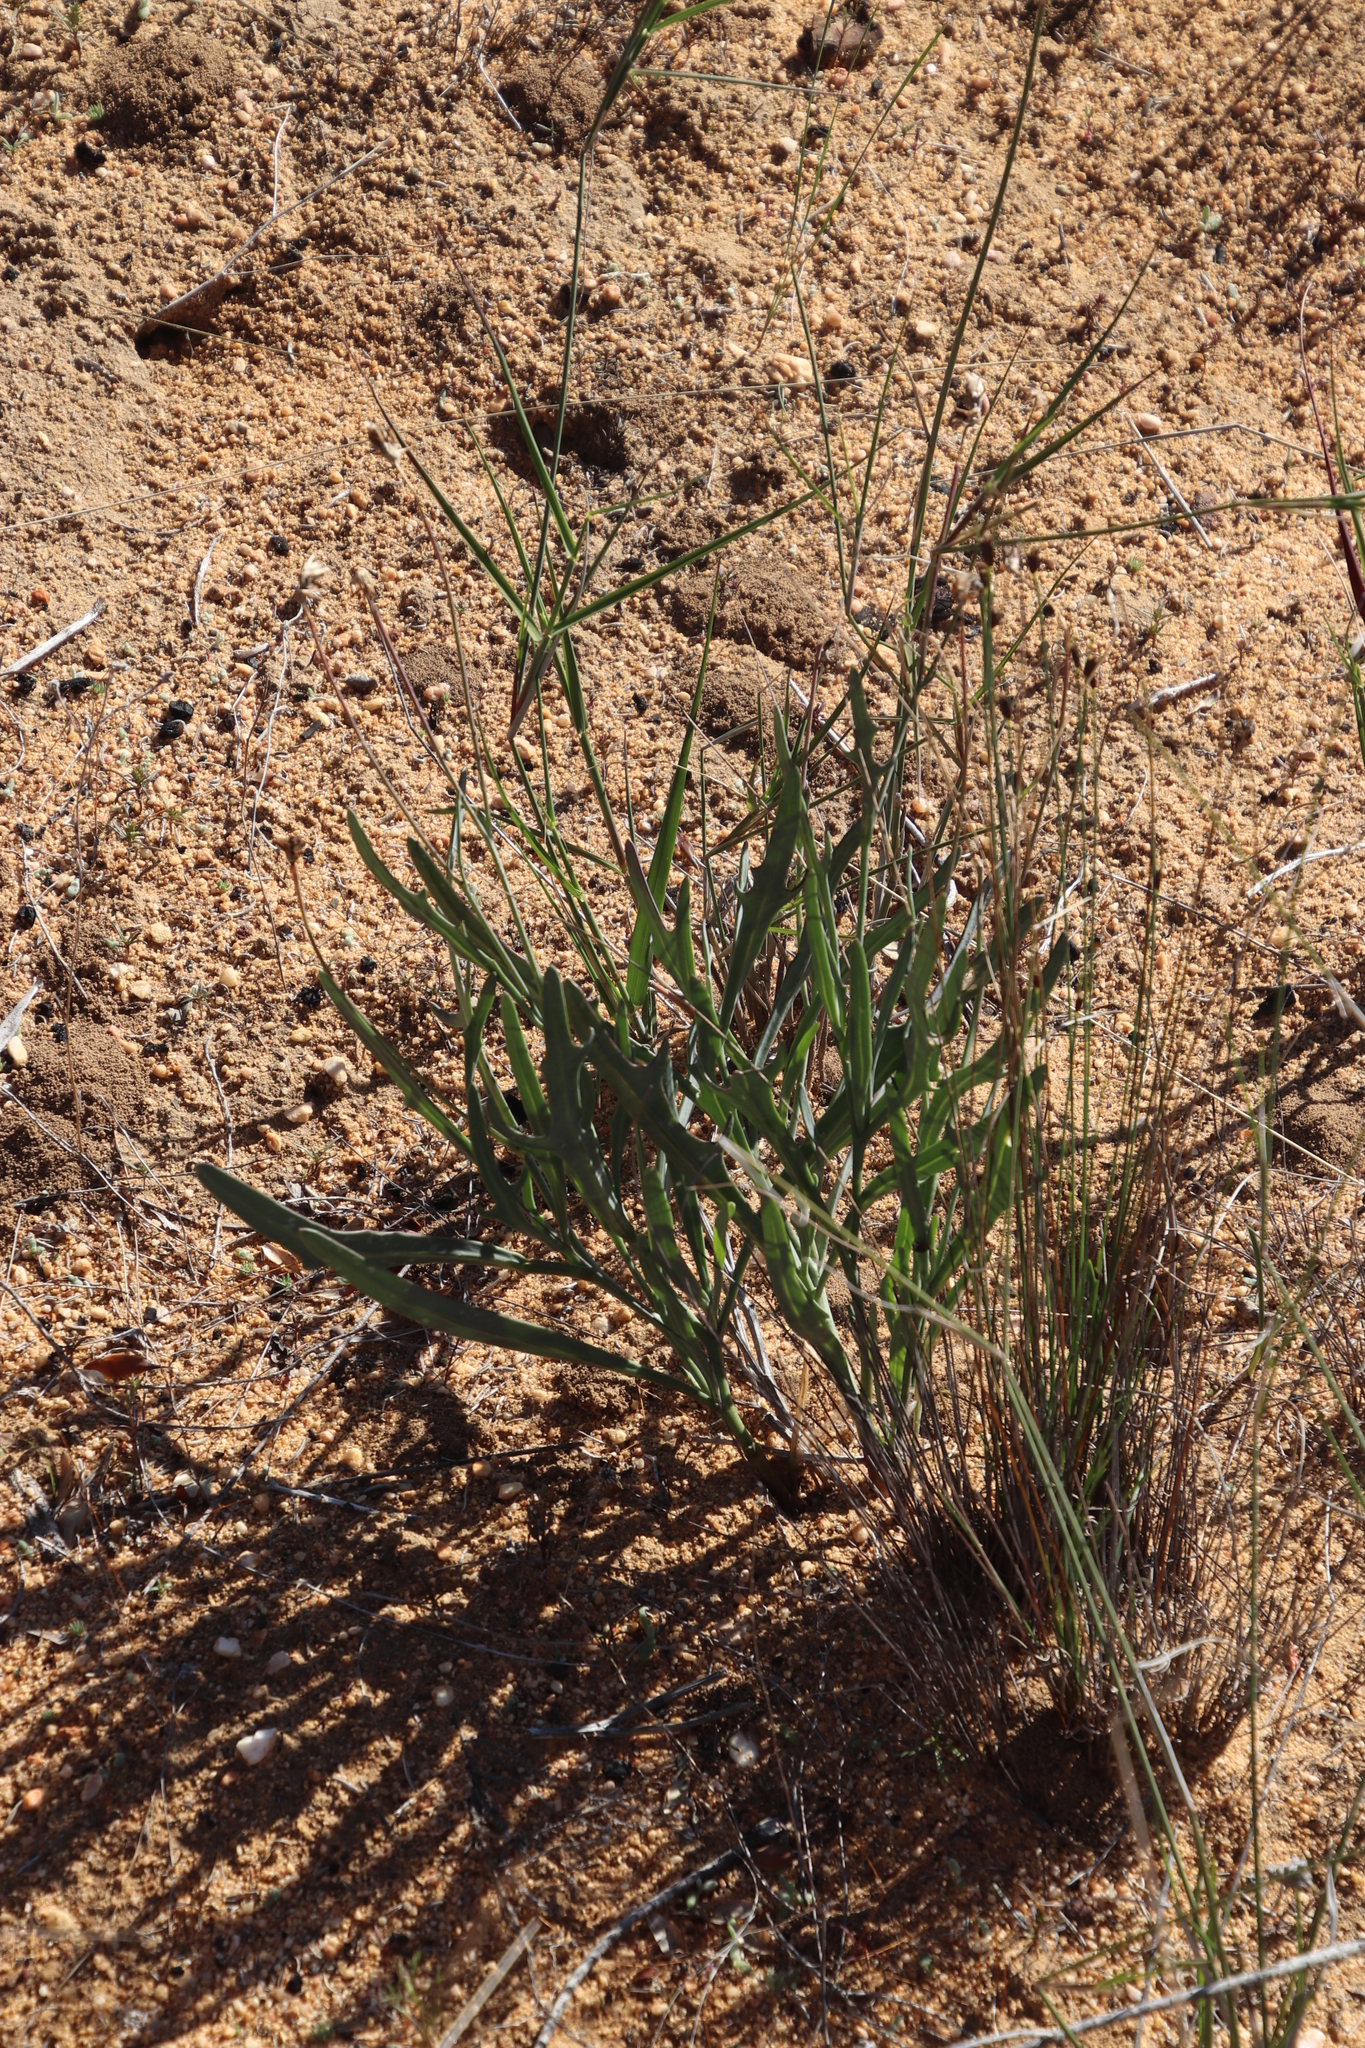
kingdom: Plantae
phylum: Tracheophyta
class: Magnoliopsida
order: Asterales
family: Asteraceae
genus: Othonna
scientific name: Othonna digitata
